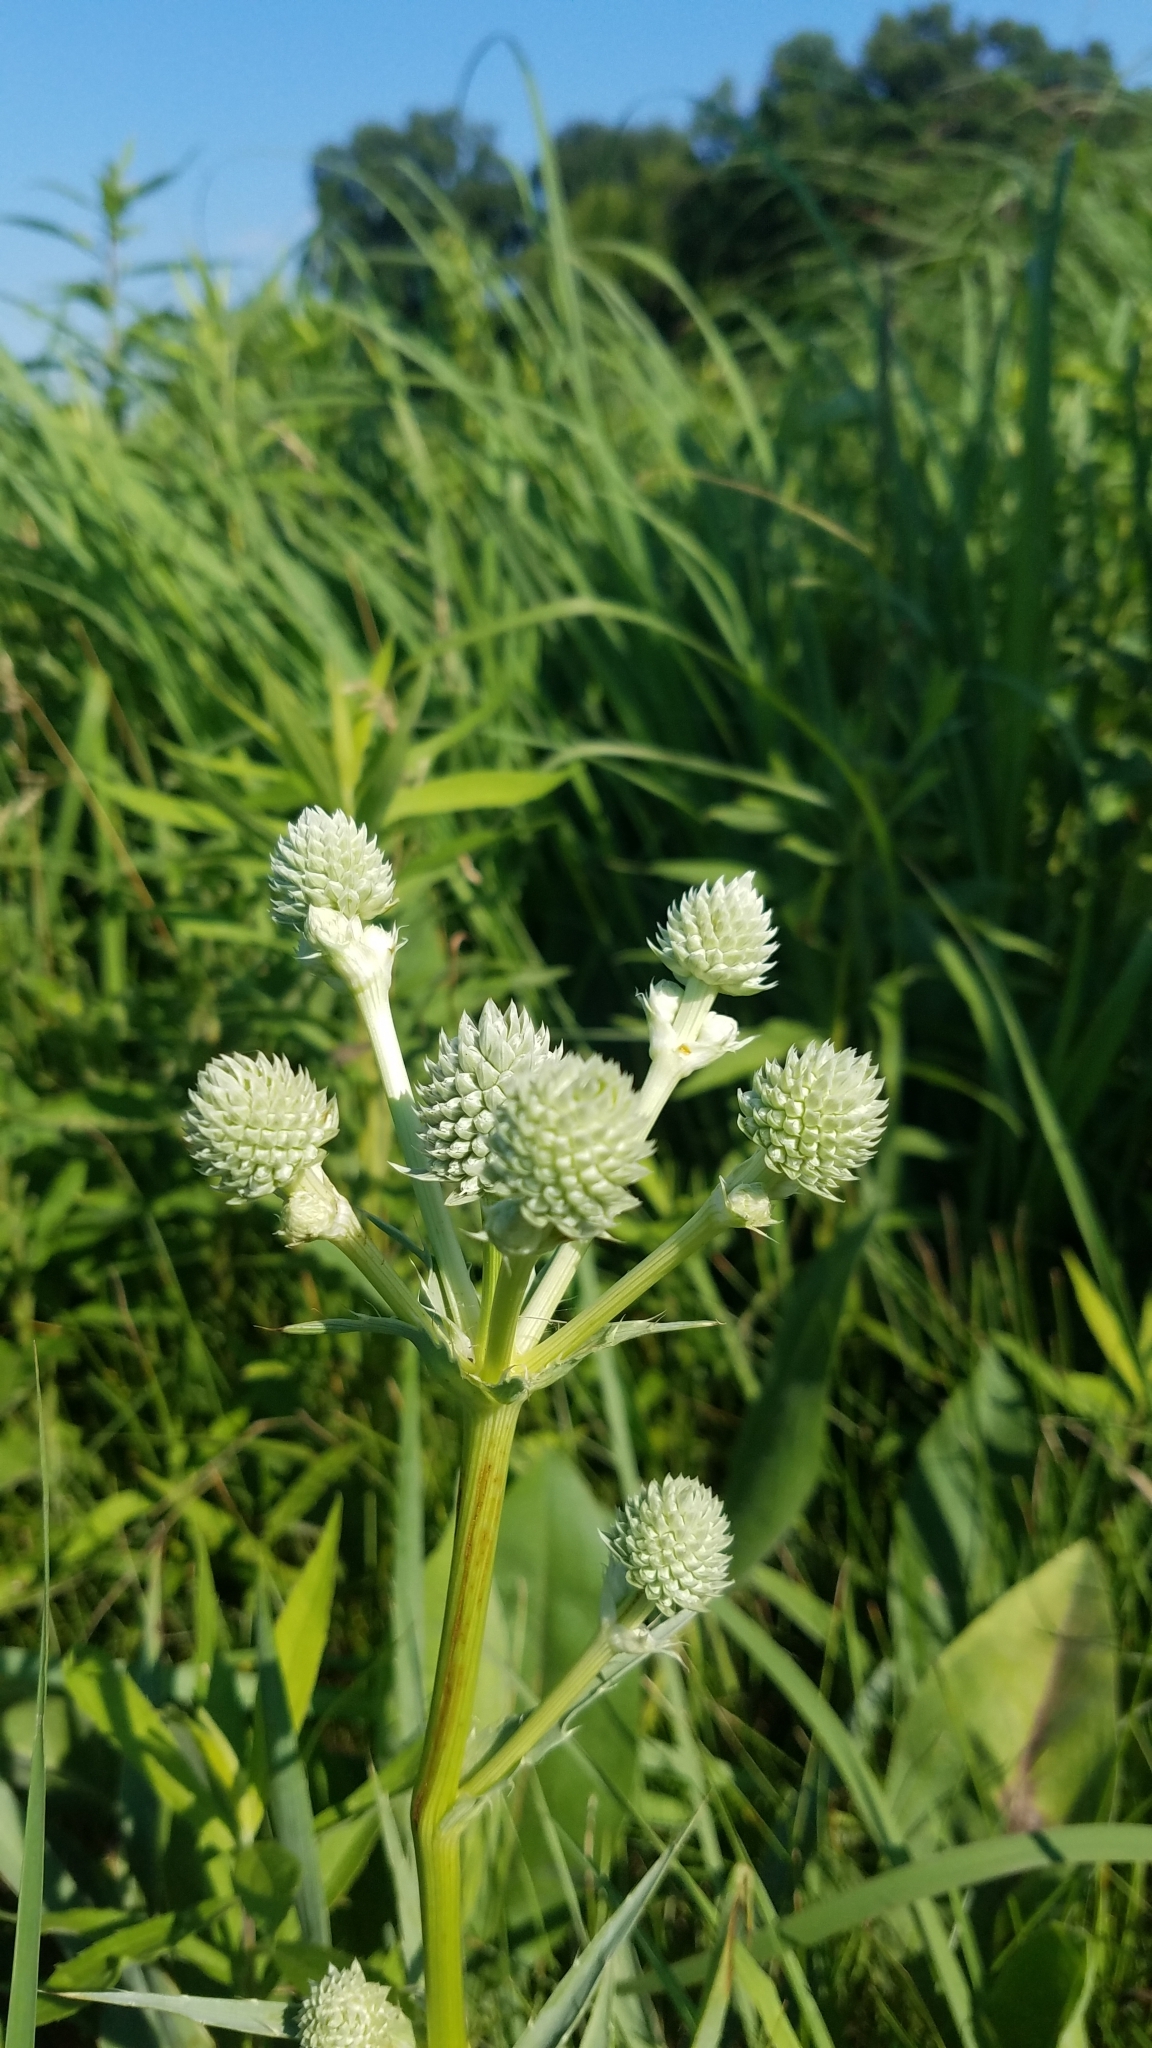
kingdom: Plantae
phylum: Tracheophyta
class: Magnoliopsida
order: Apiales
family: Apiaceae
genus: Eryngium
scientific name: Eryngium yuccifolium
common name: Button eryngo
